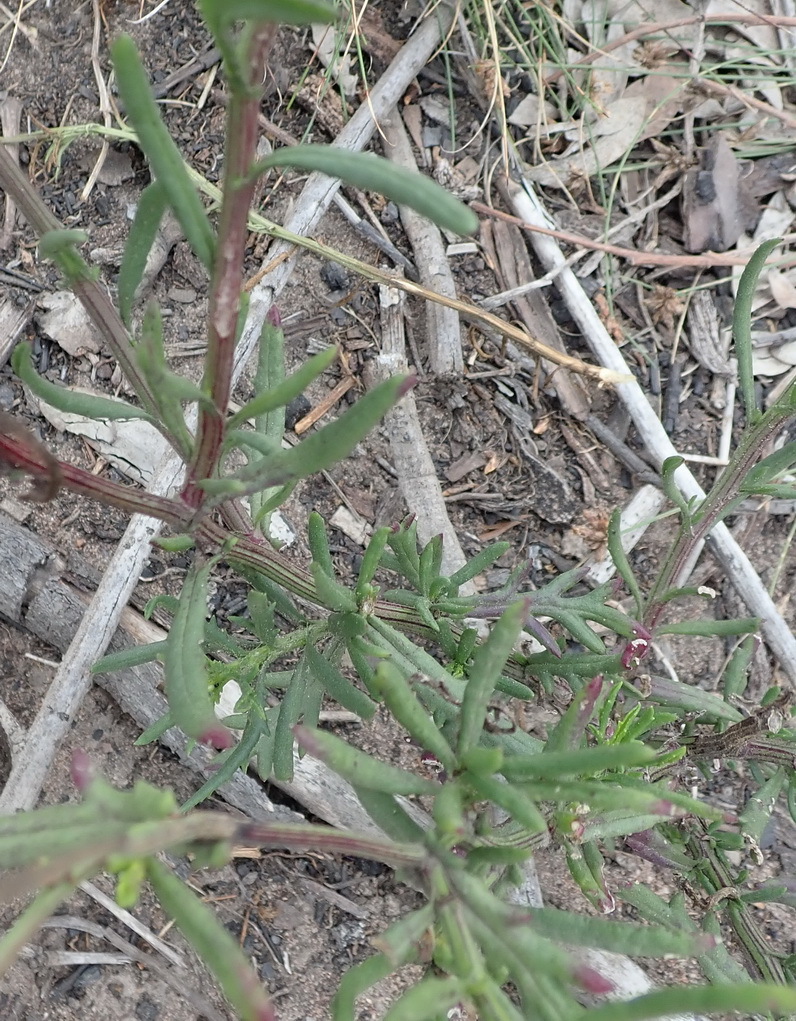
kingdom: Plantae
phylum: Tracheophyta
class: Magnoliopsida
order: Asterales
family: Asteraceae
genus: Senecio
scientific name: Senecio burchellii
